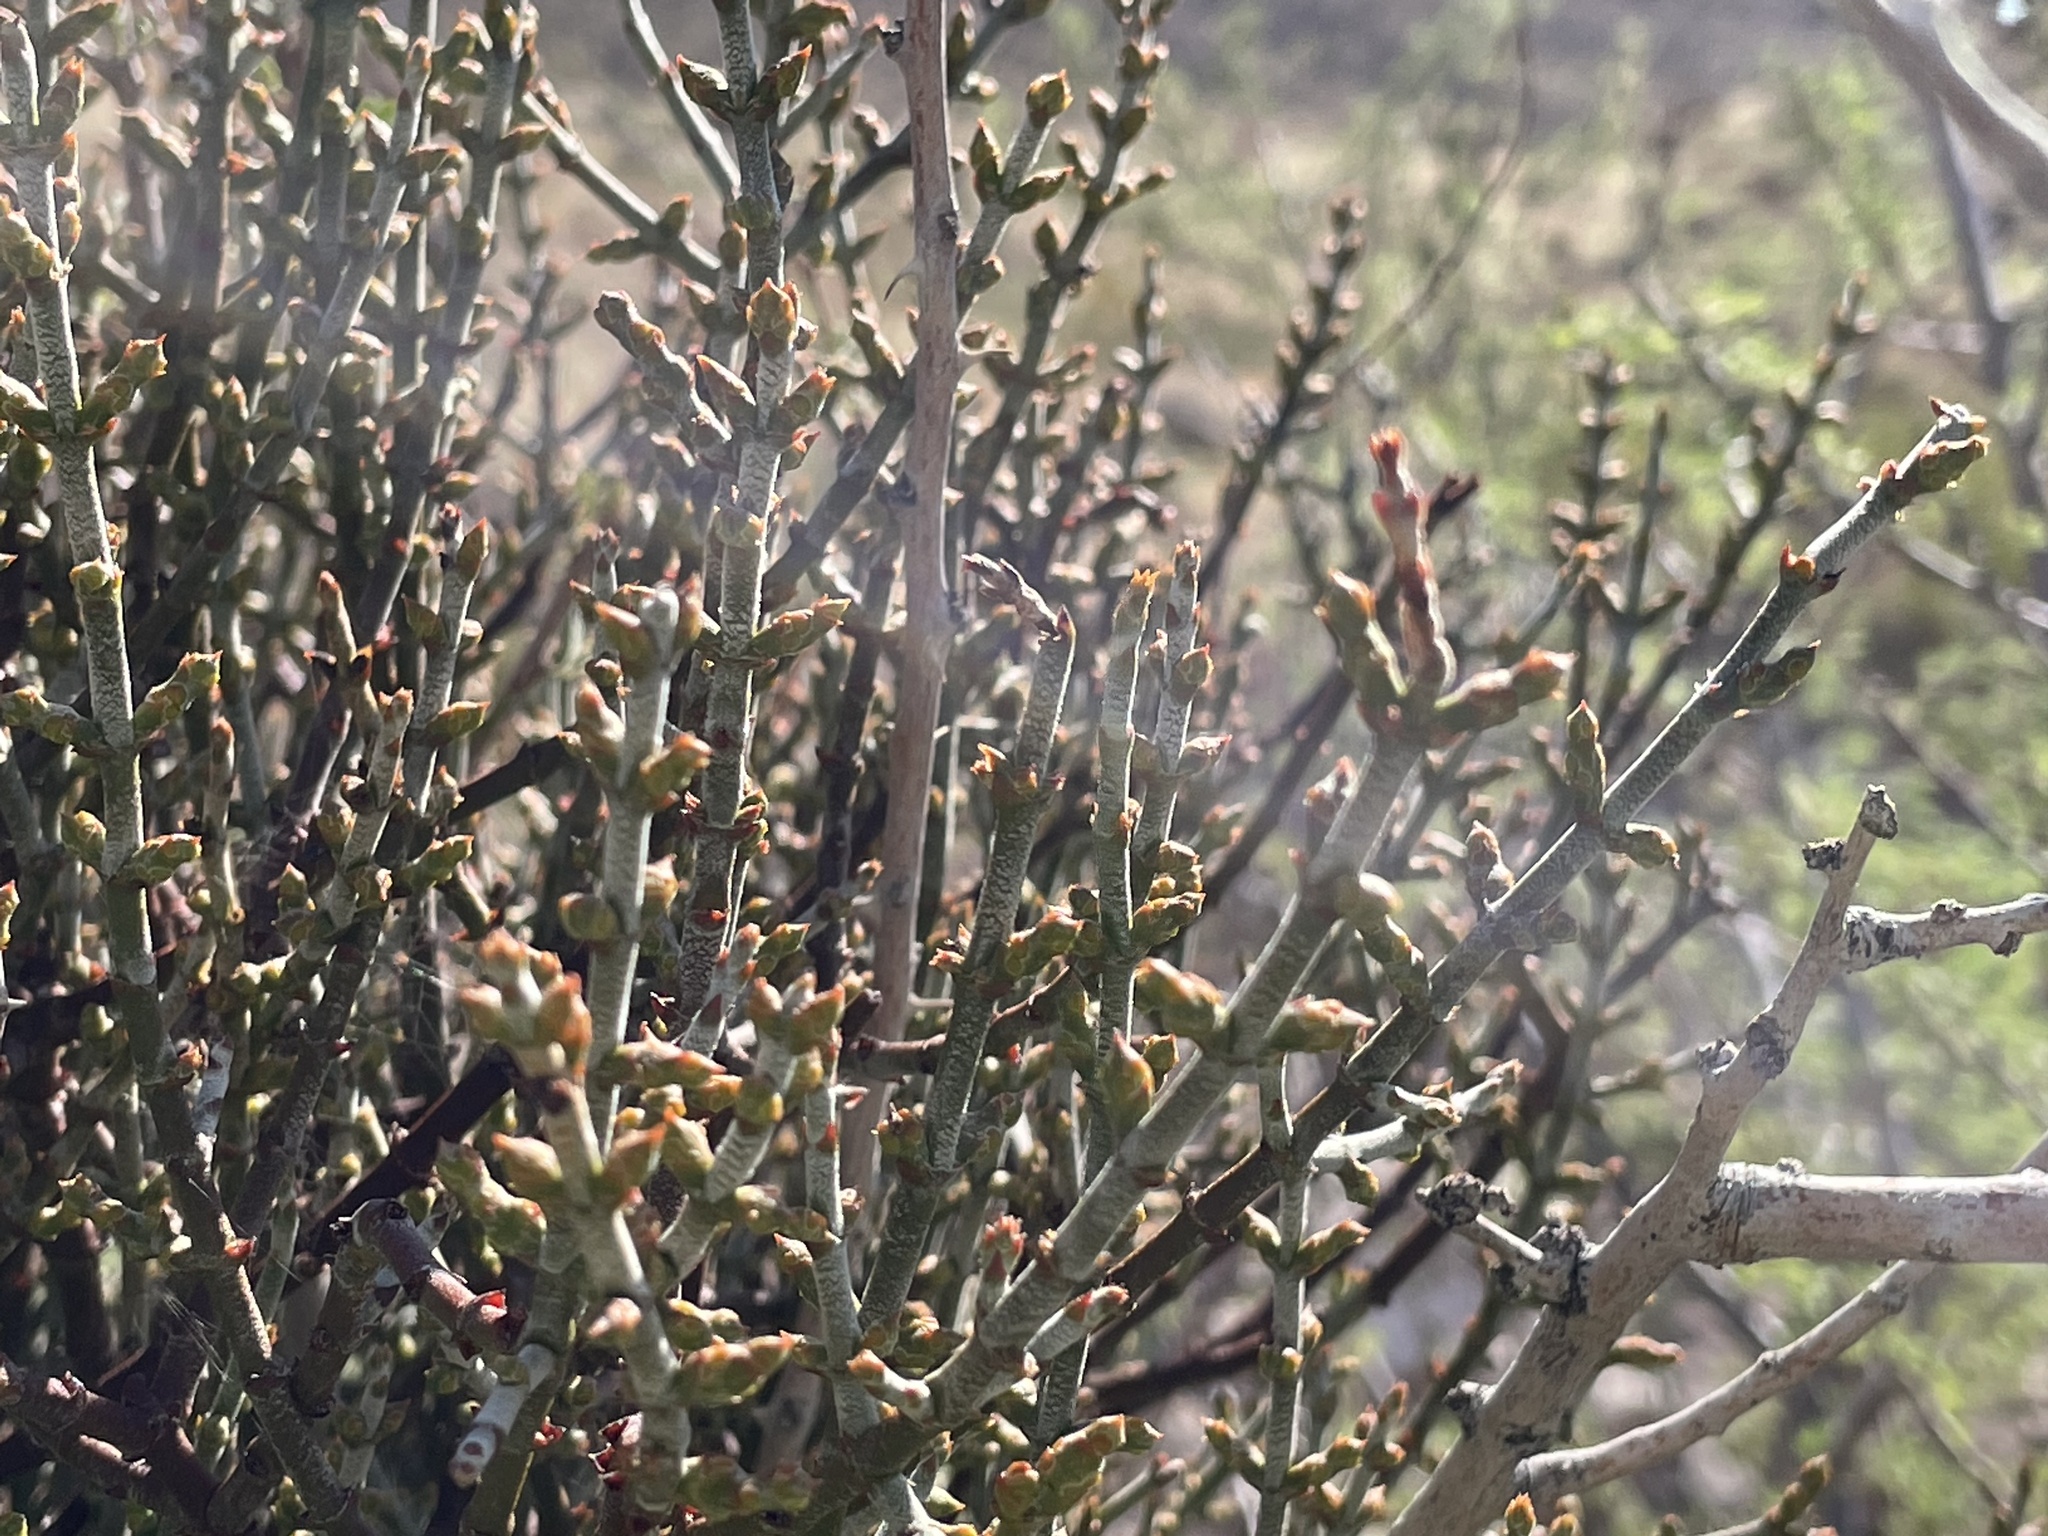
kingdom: Plantae
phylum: Tracheophyta
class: Magnoliopsida
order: Santalales
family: Viscaceae
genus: Phoradendron
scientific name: Phoradendron californicum
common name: Acacia mistletoe
